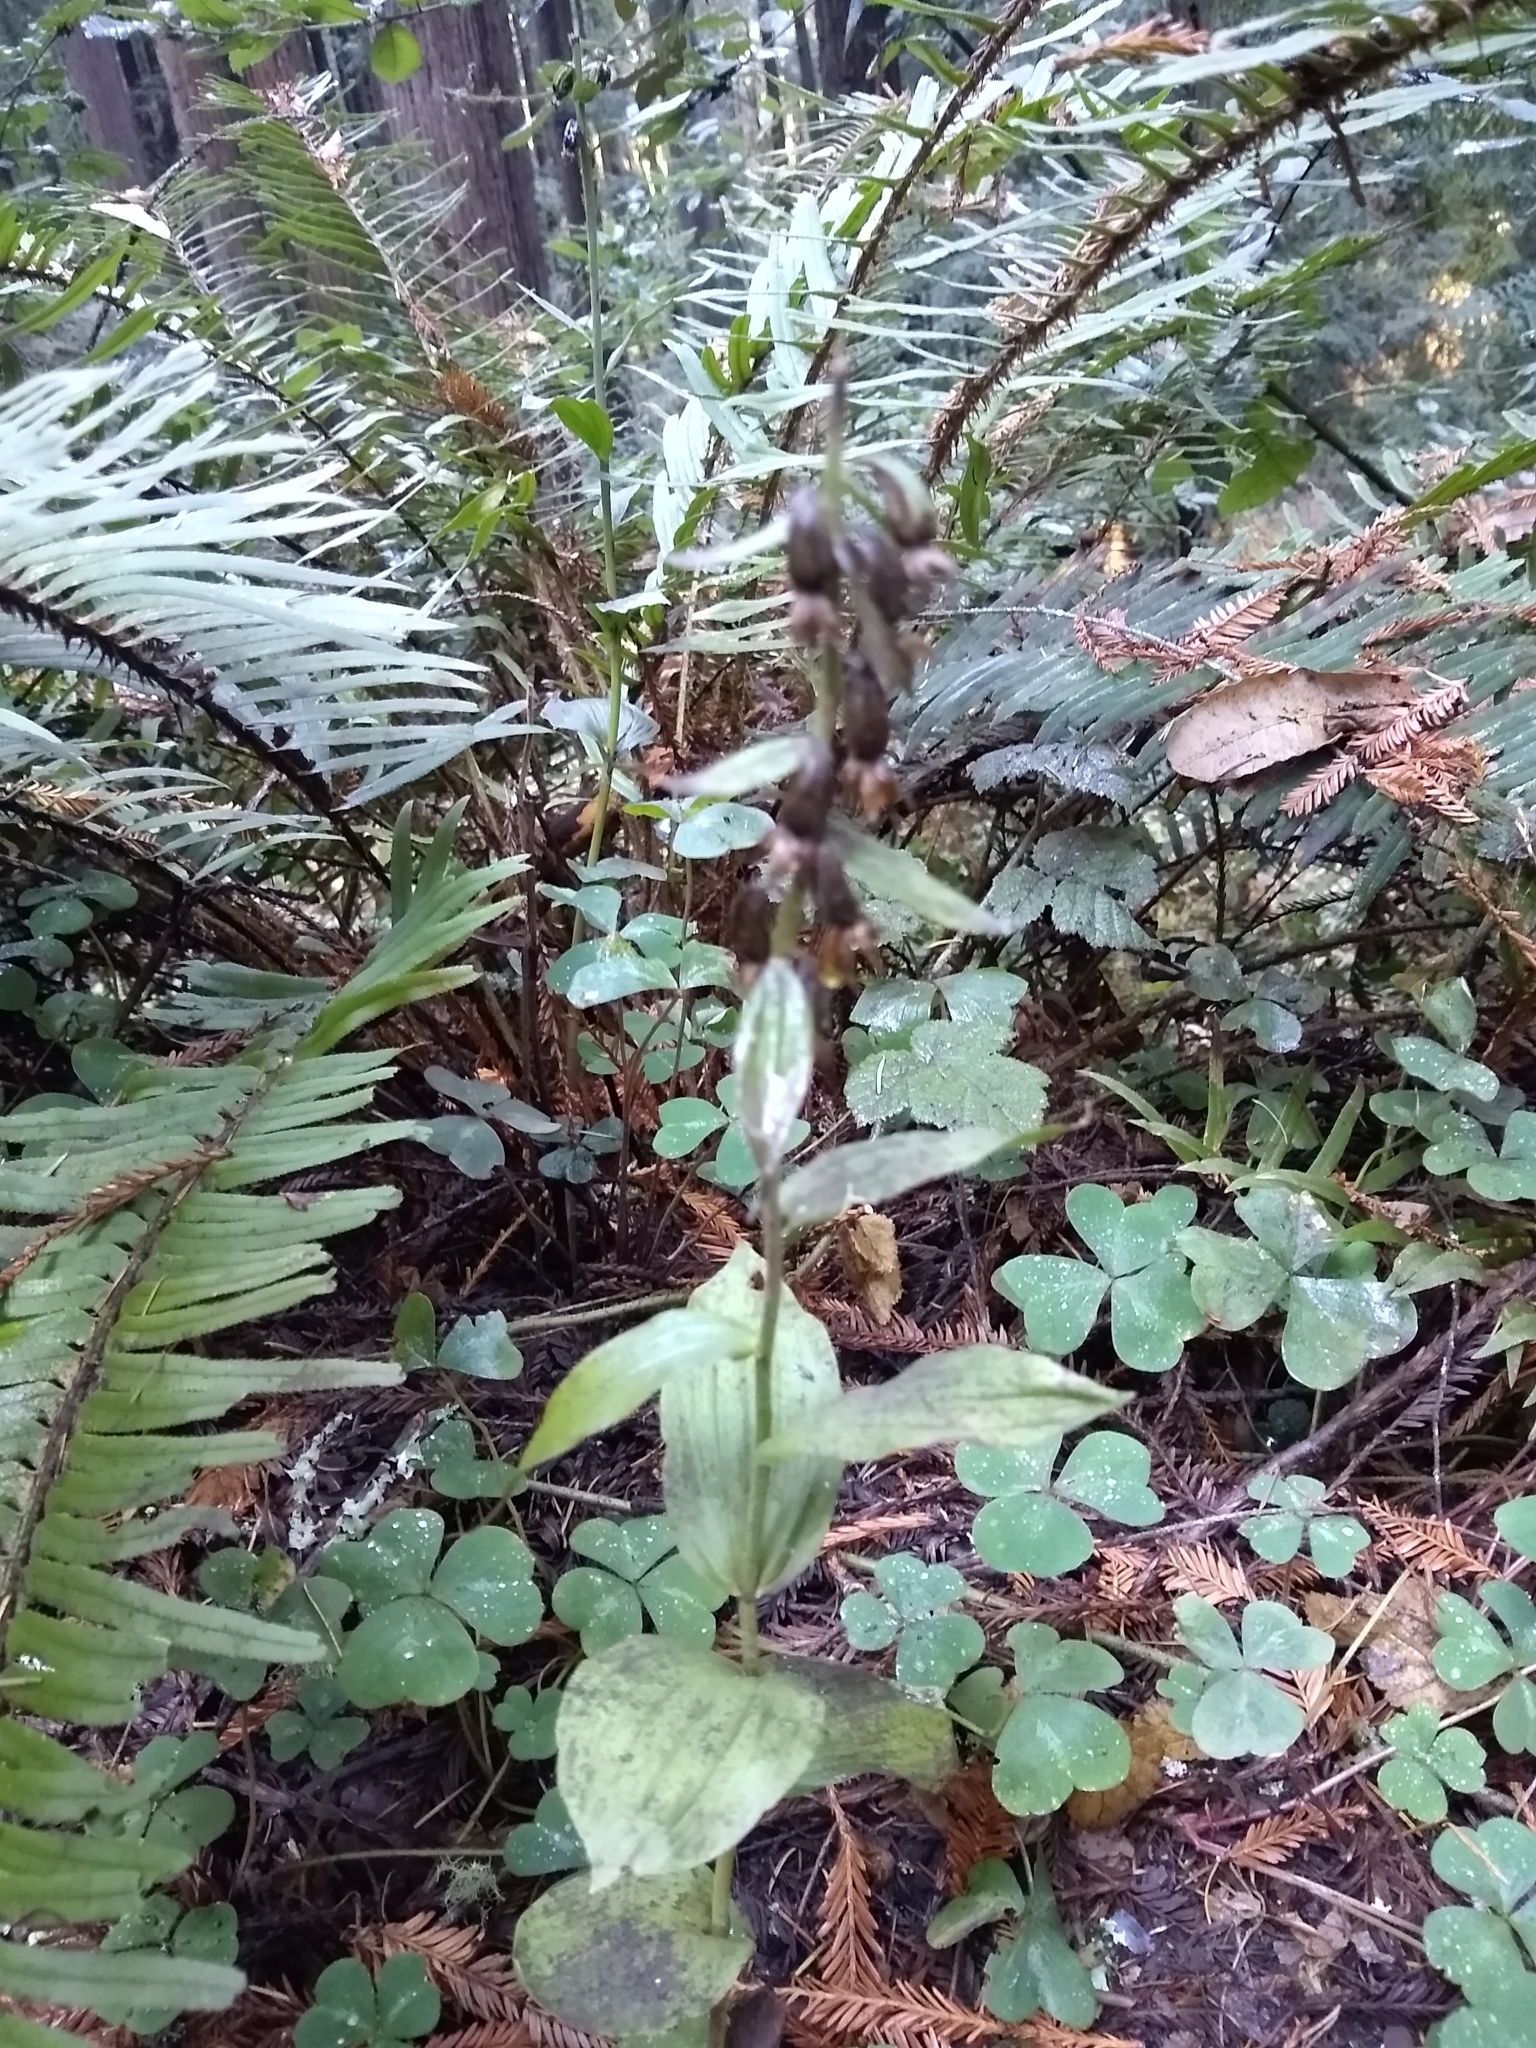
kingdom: Plantae
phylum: Tracheophyta
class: Liliopsida
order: Asparagales
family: Orchidaceae
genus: Epipactis
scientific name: Epipactis helleborine
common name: Broad-leaved helleborine
